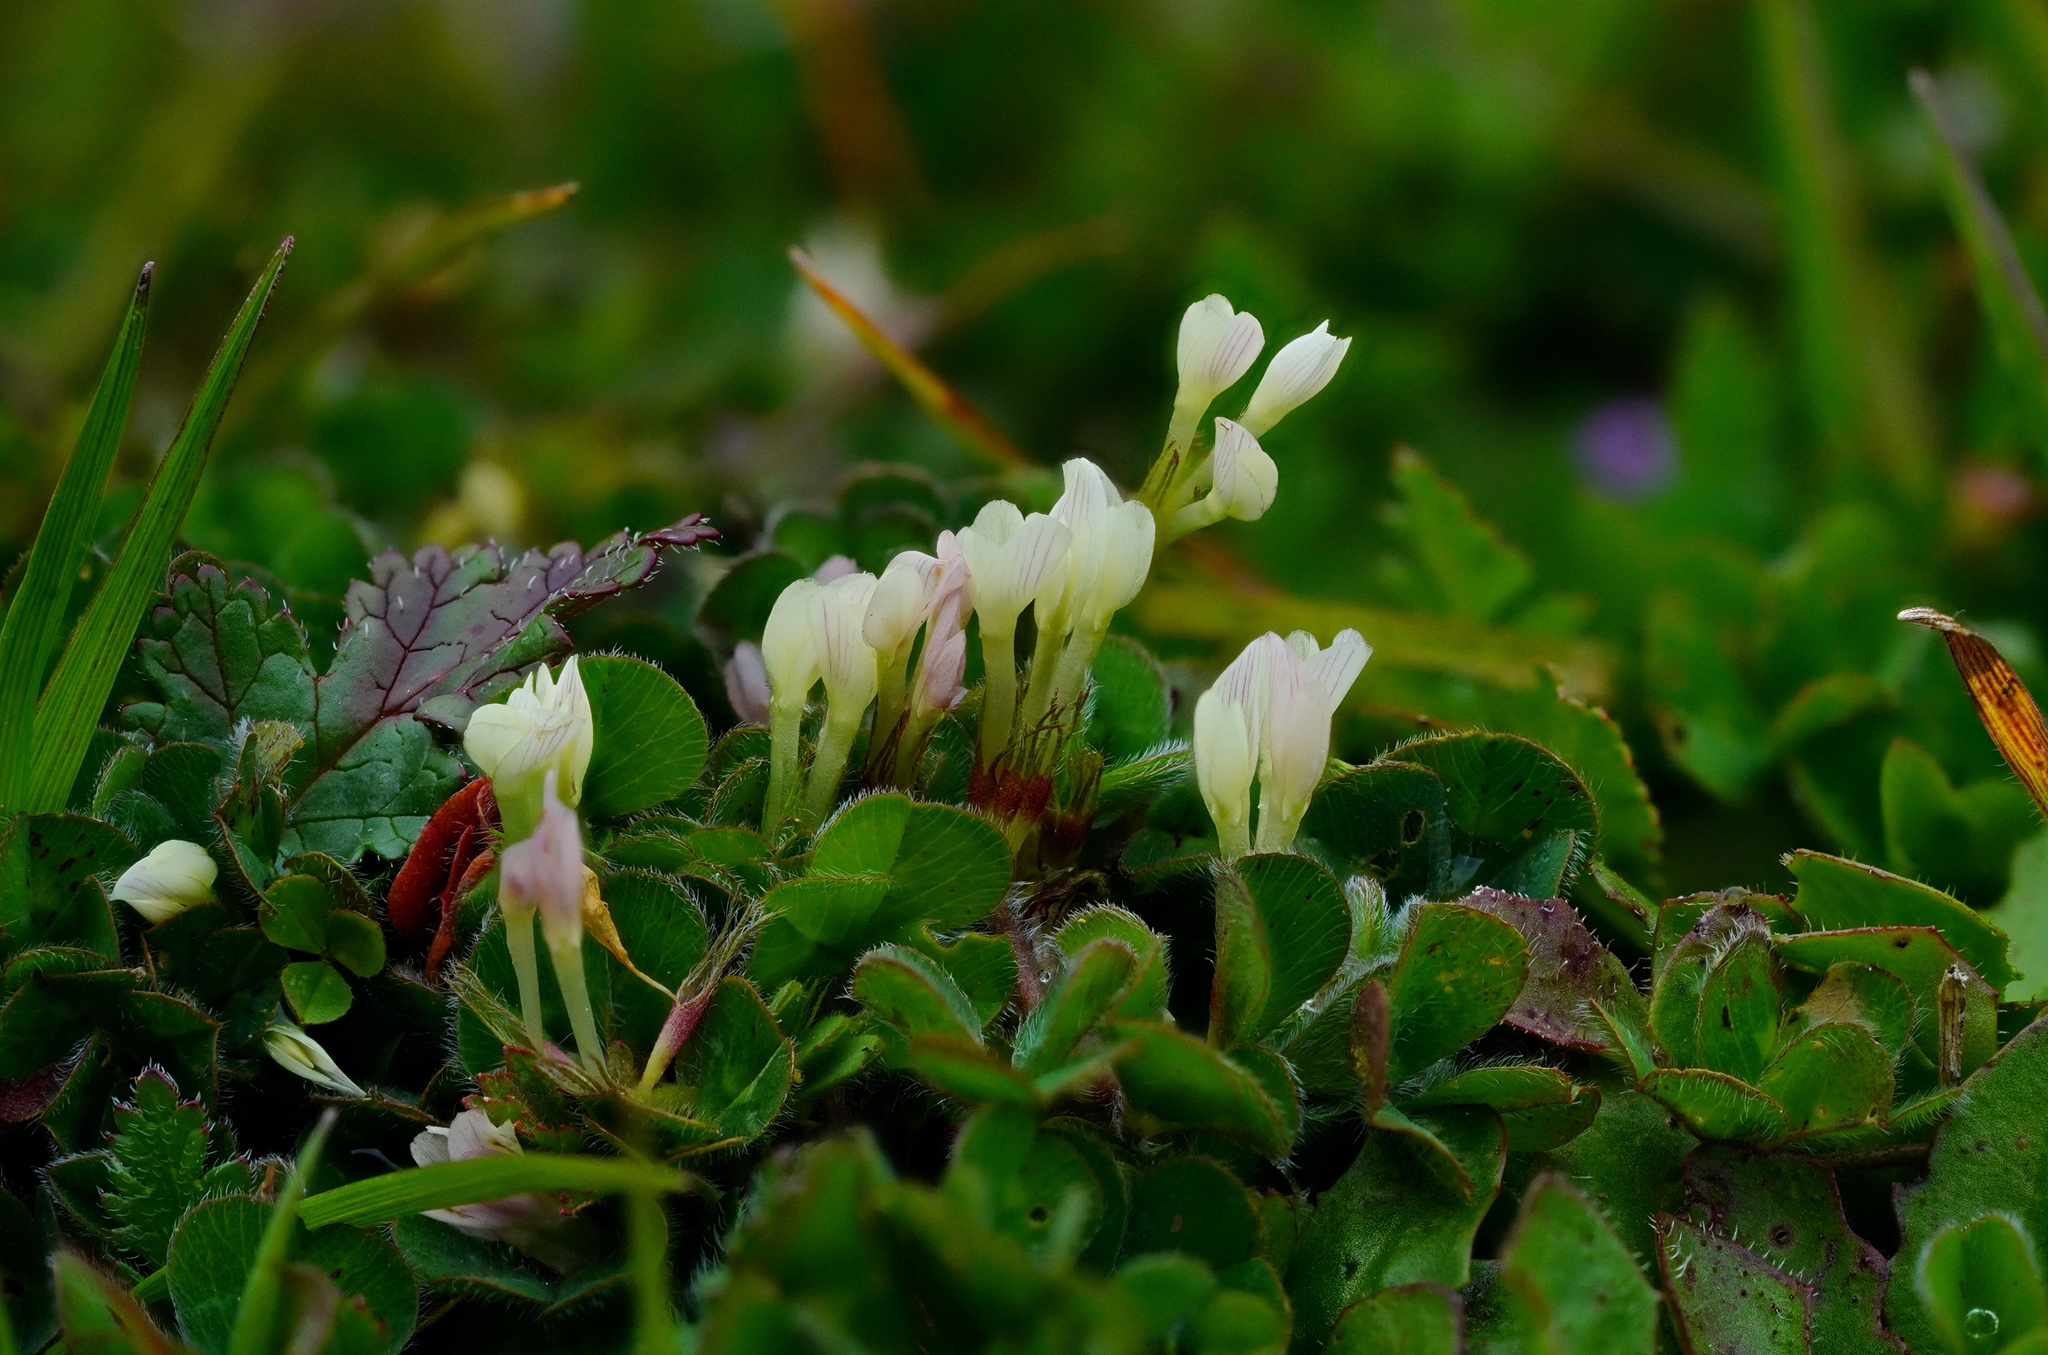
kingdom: Plantae
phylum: Tracheophyta
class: Magnoliopsida
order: Fabales
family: Fabaceae
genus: Trifolium
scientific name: Trifolium subterraneum
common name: Subterranean clover
